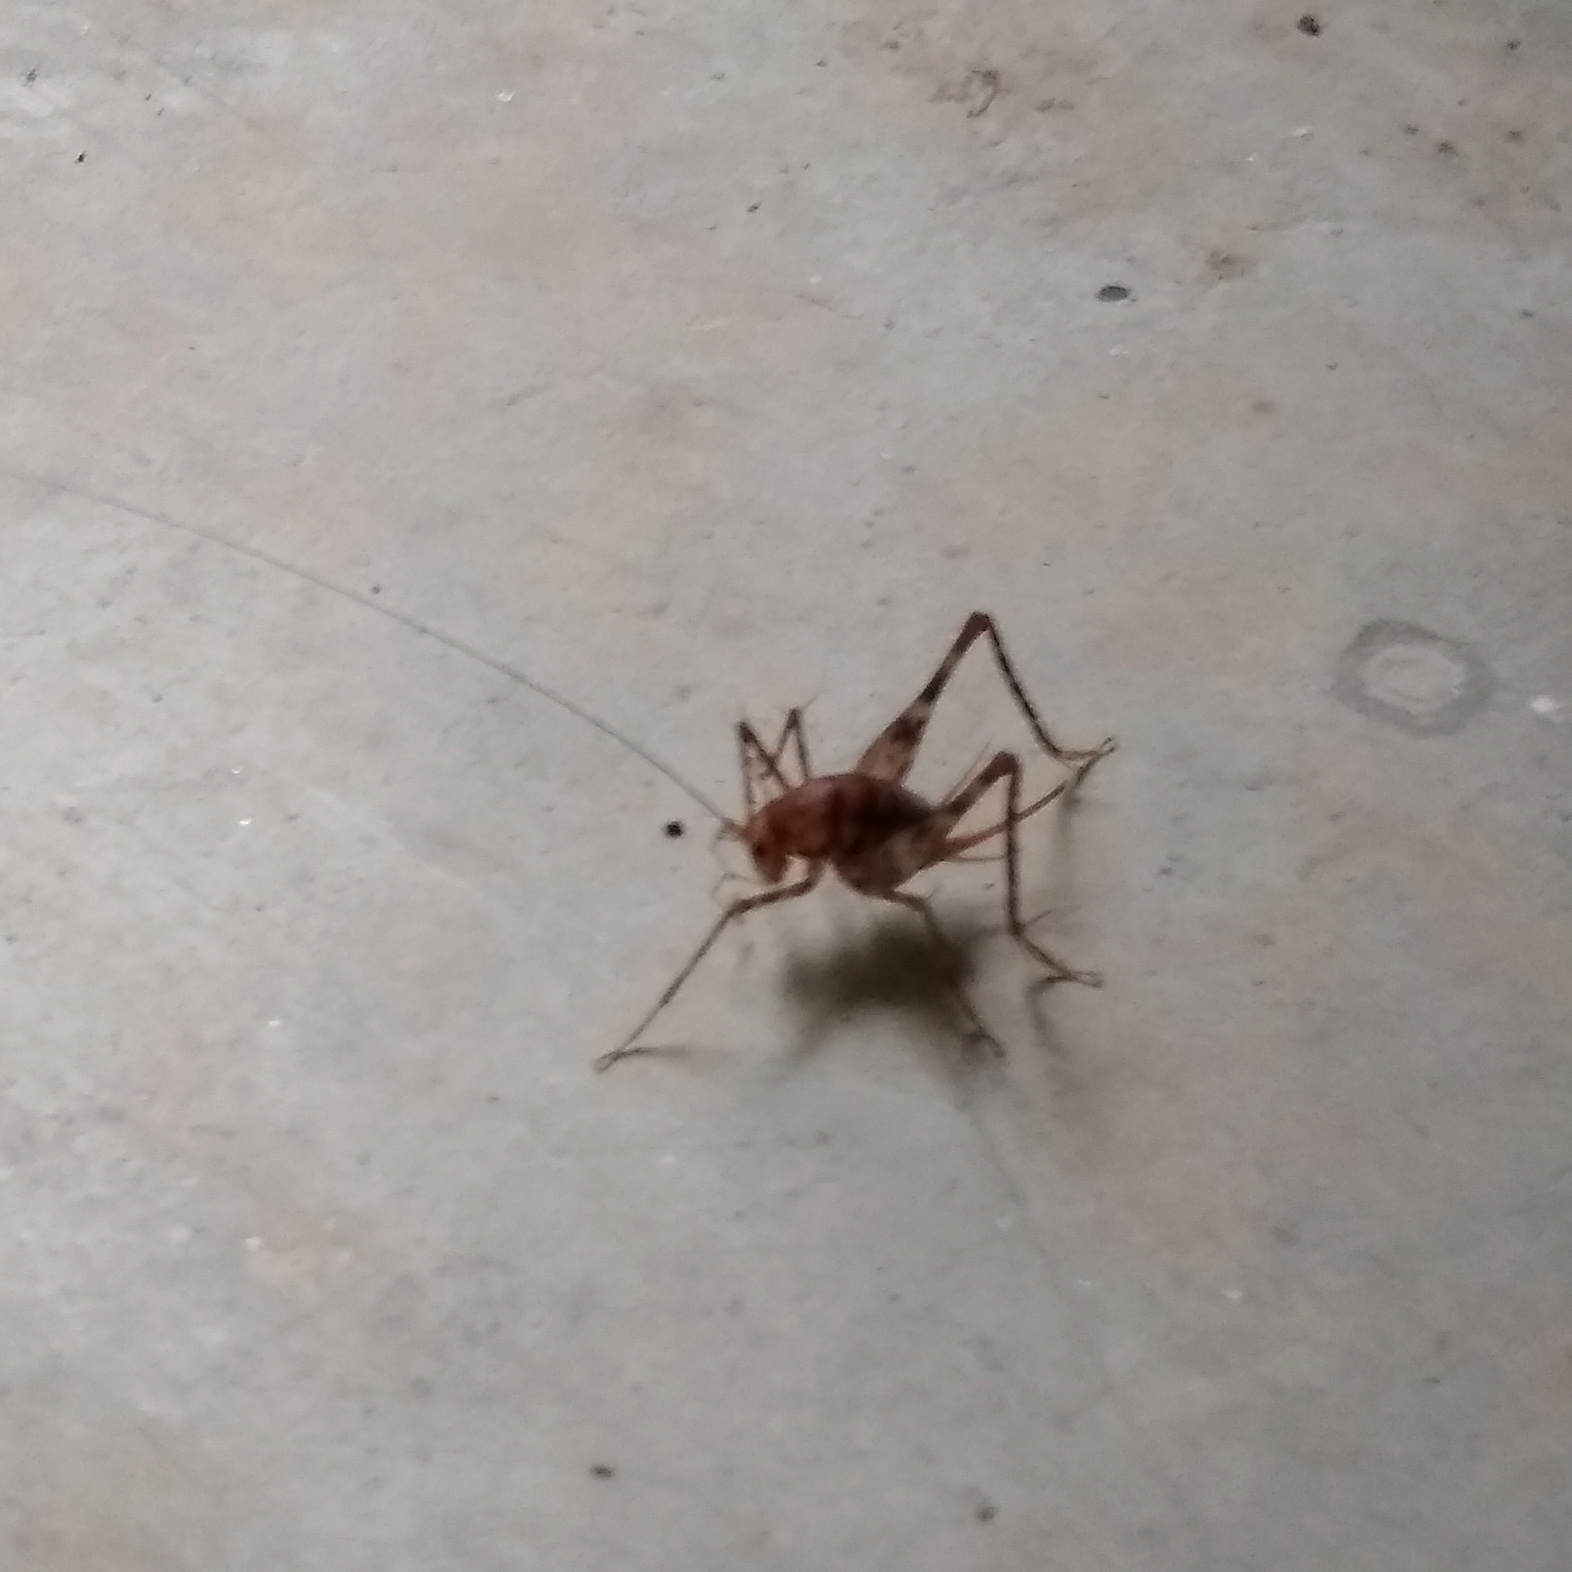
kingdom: Animalia
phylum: Arthropoda
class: Insecta
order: Orthoptera
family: Rhaphidophoridae
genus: Tachycines
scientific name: Tachycines asynamorus
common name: Greenhouse camel cricket
